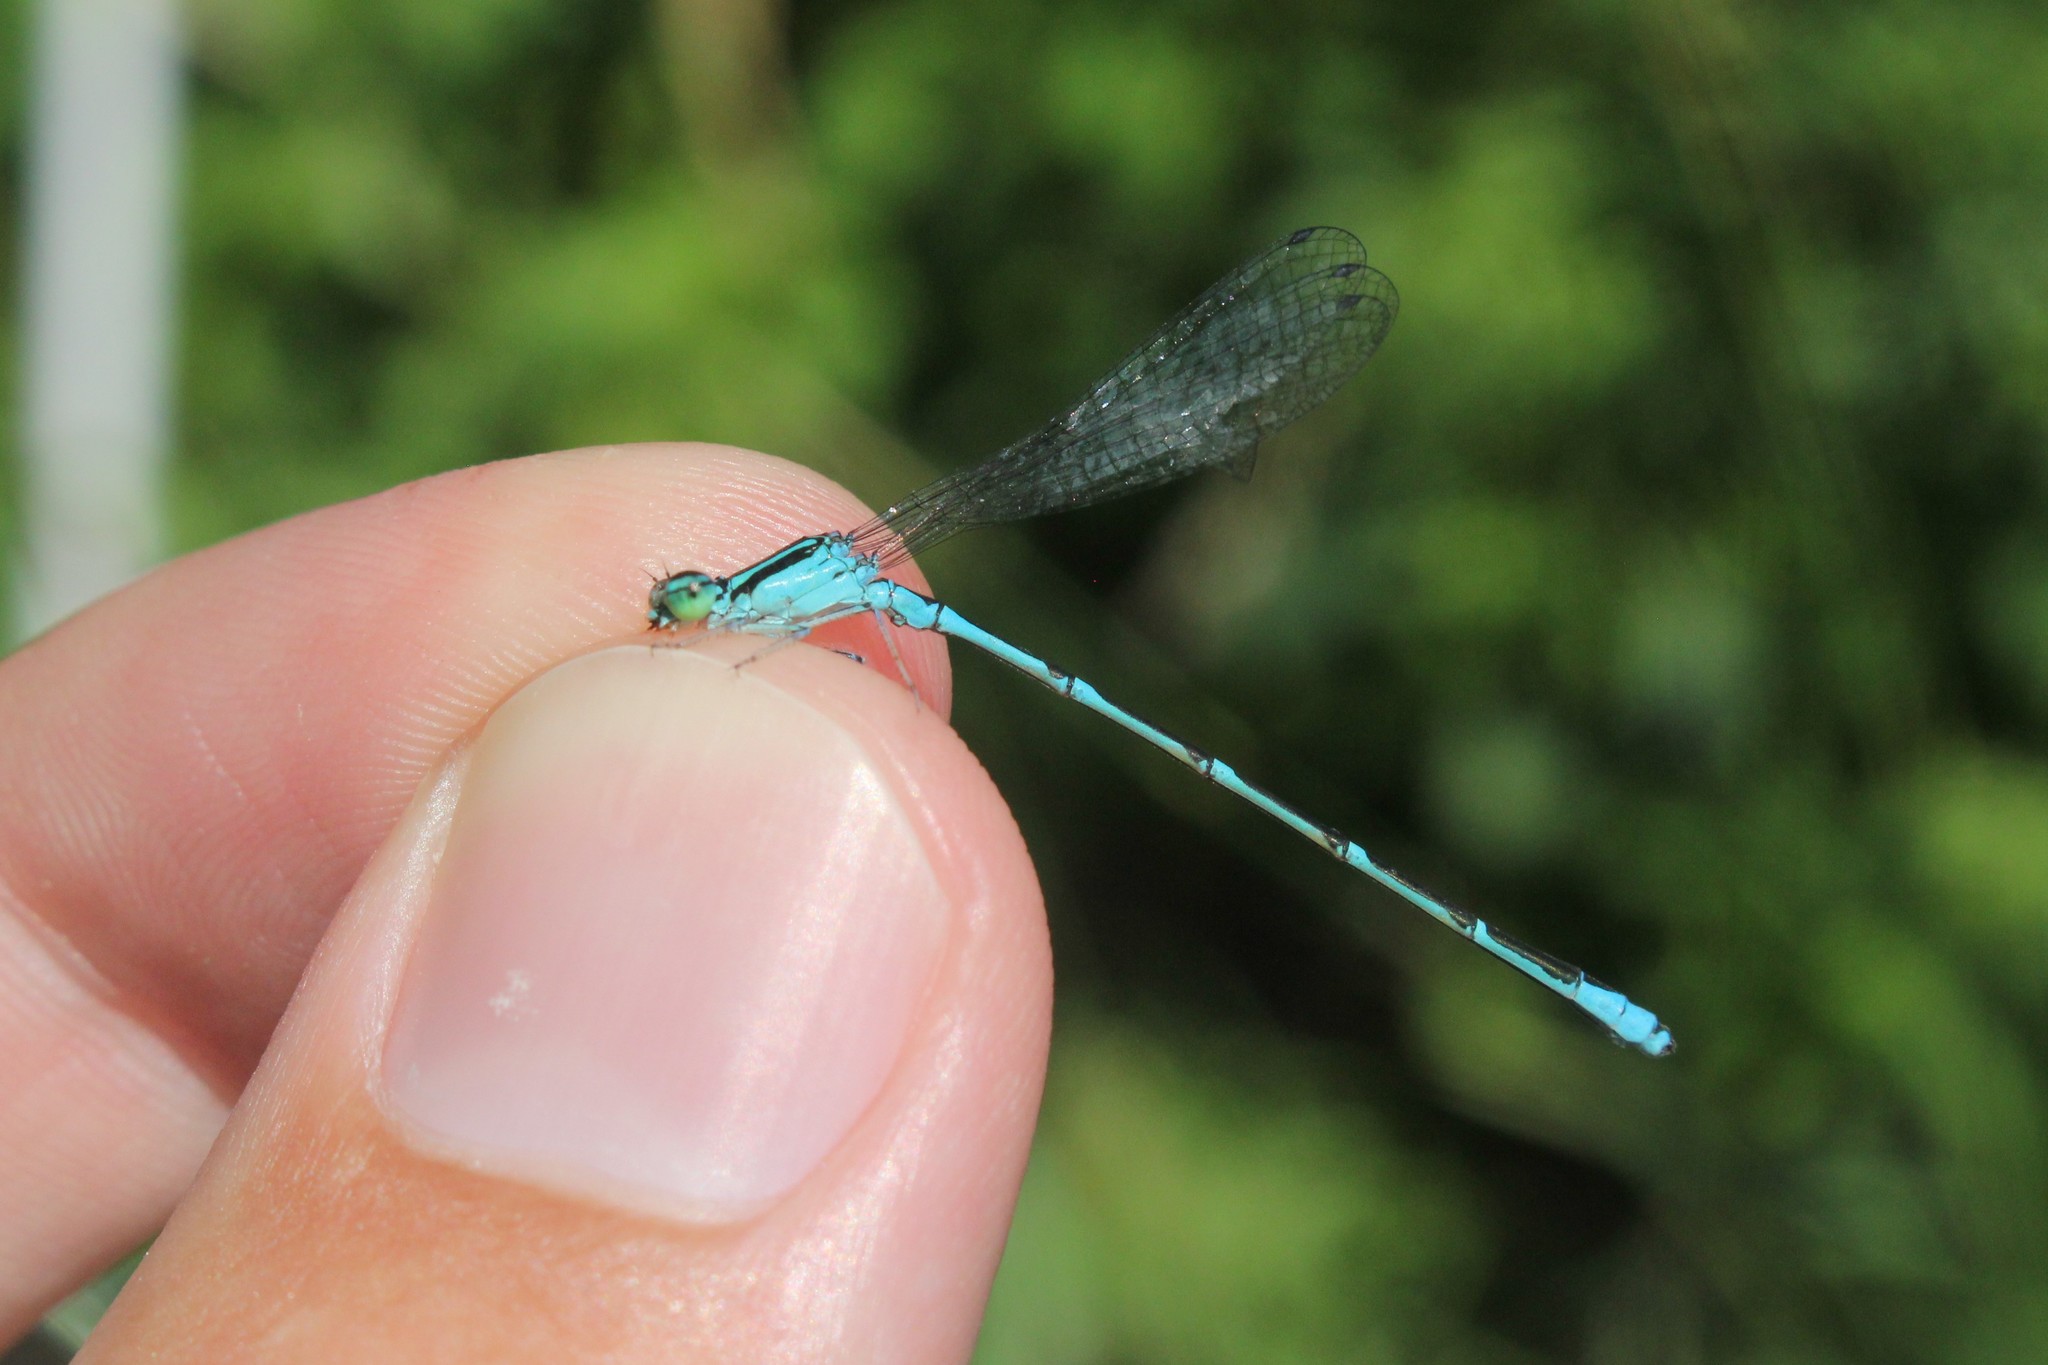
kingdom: Animalia
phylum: Arthropoda
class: Insecta
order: Odonata
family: Coenagrionidae
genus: Enallagma
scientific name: Enallagma exsulans
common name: Stream bluet
